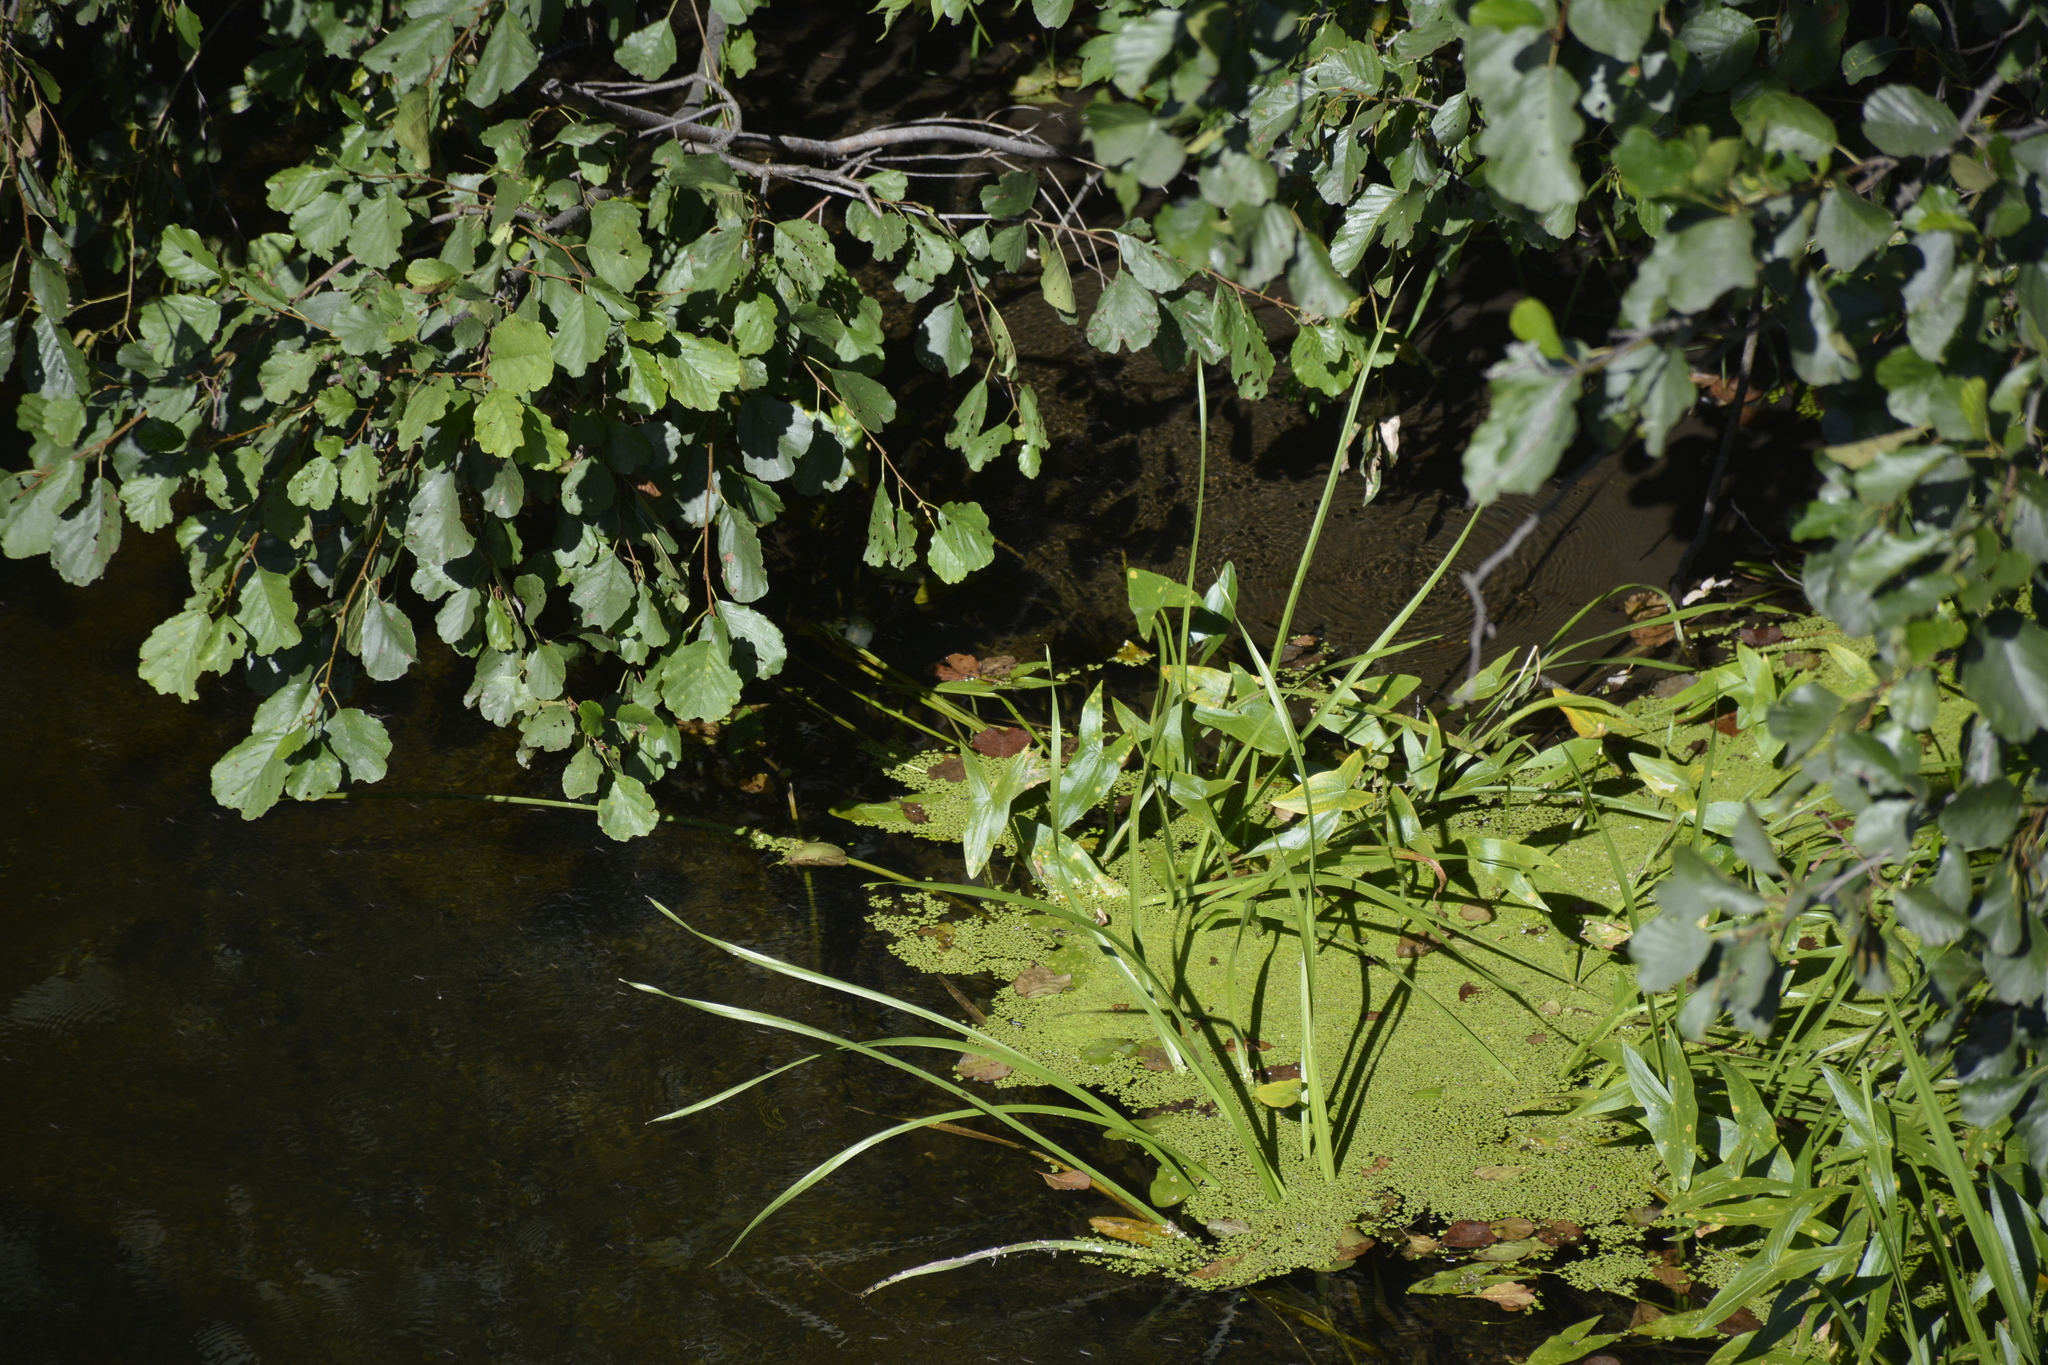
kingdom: Plantae
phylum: Tracheophyta
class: Liliopsida
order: Alismatales
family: Alismataceae
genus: Sagittaria
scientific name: Sagittaria sagittifolia
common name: Arrowhead
